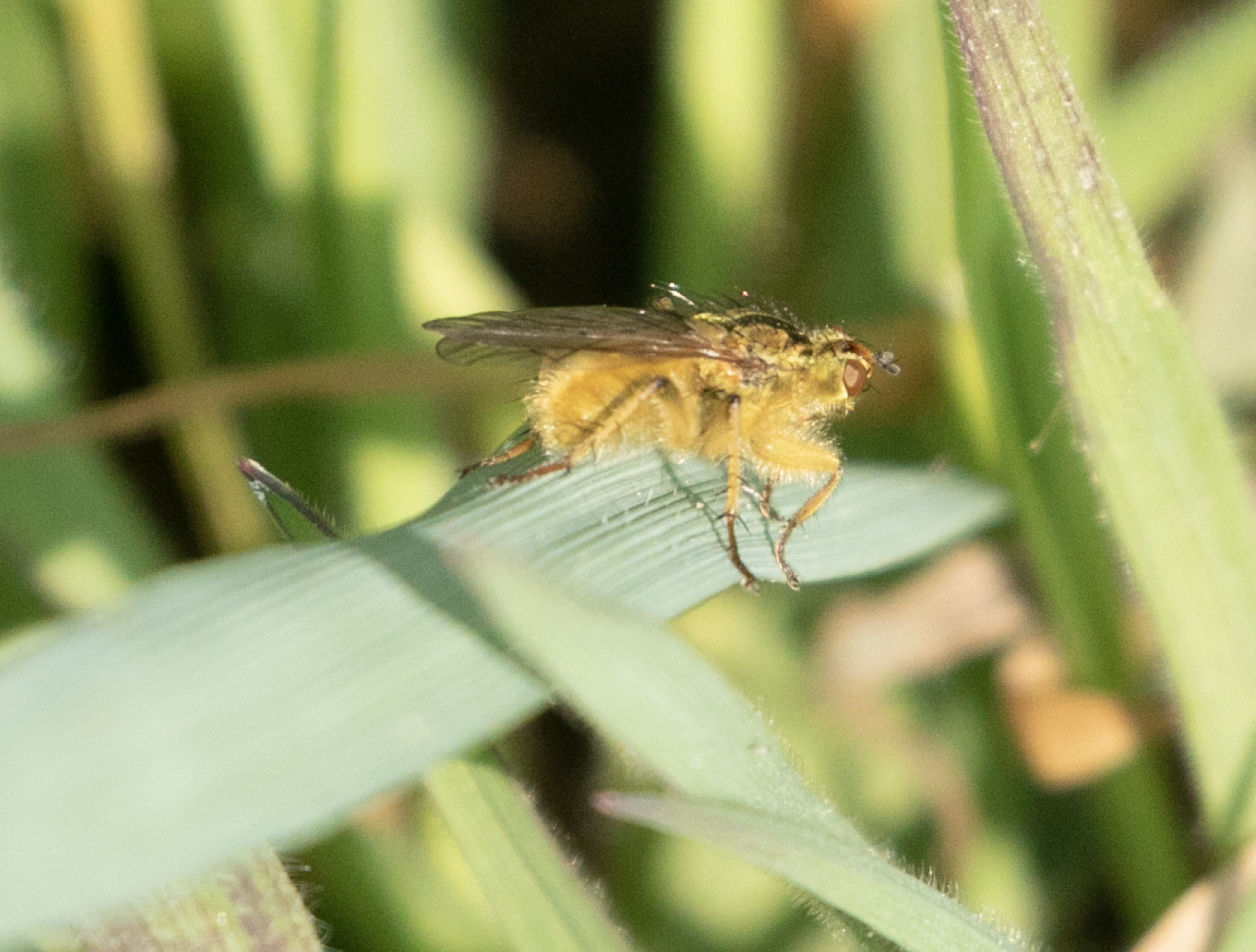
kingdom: Animalia
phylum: Arthropoda
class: Insecta
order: Diptera
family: Scathophagidae
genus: Scathophaga
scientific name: Scathophaga stercoraria
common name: Yellow dung fly
